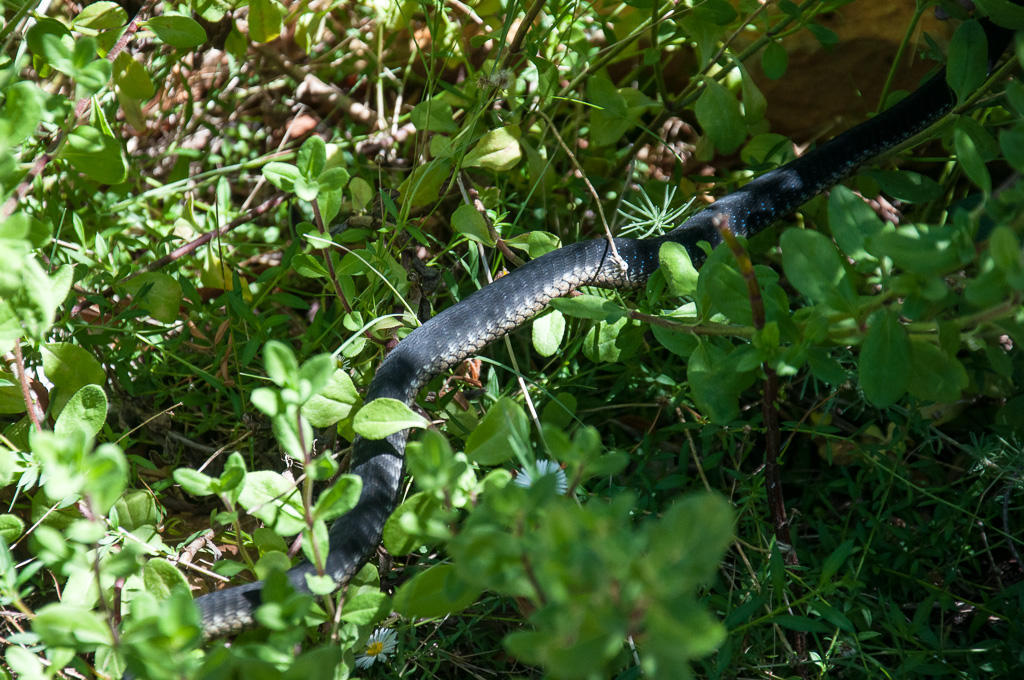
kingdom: Animalia
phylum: Chordata
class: Squamata
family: Colubridae
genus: Dispholidus
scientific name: Dispholidus typus
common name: Boomslang
